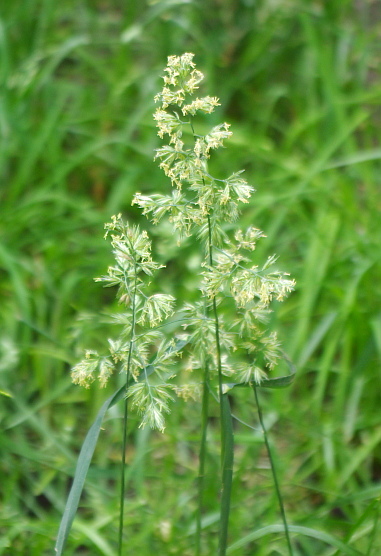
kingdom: Plantae
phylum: Tracheophyta
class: Liliopsida
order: Poales
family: Poaceae
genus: Dactylis
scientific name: Dactylis glomerata
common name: Orchardgrass
